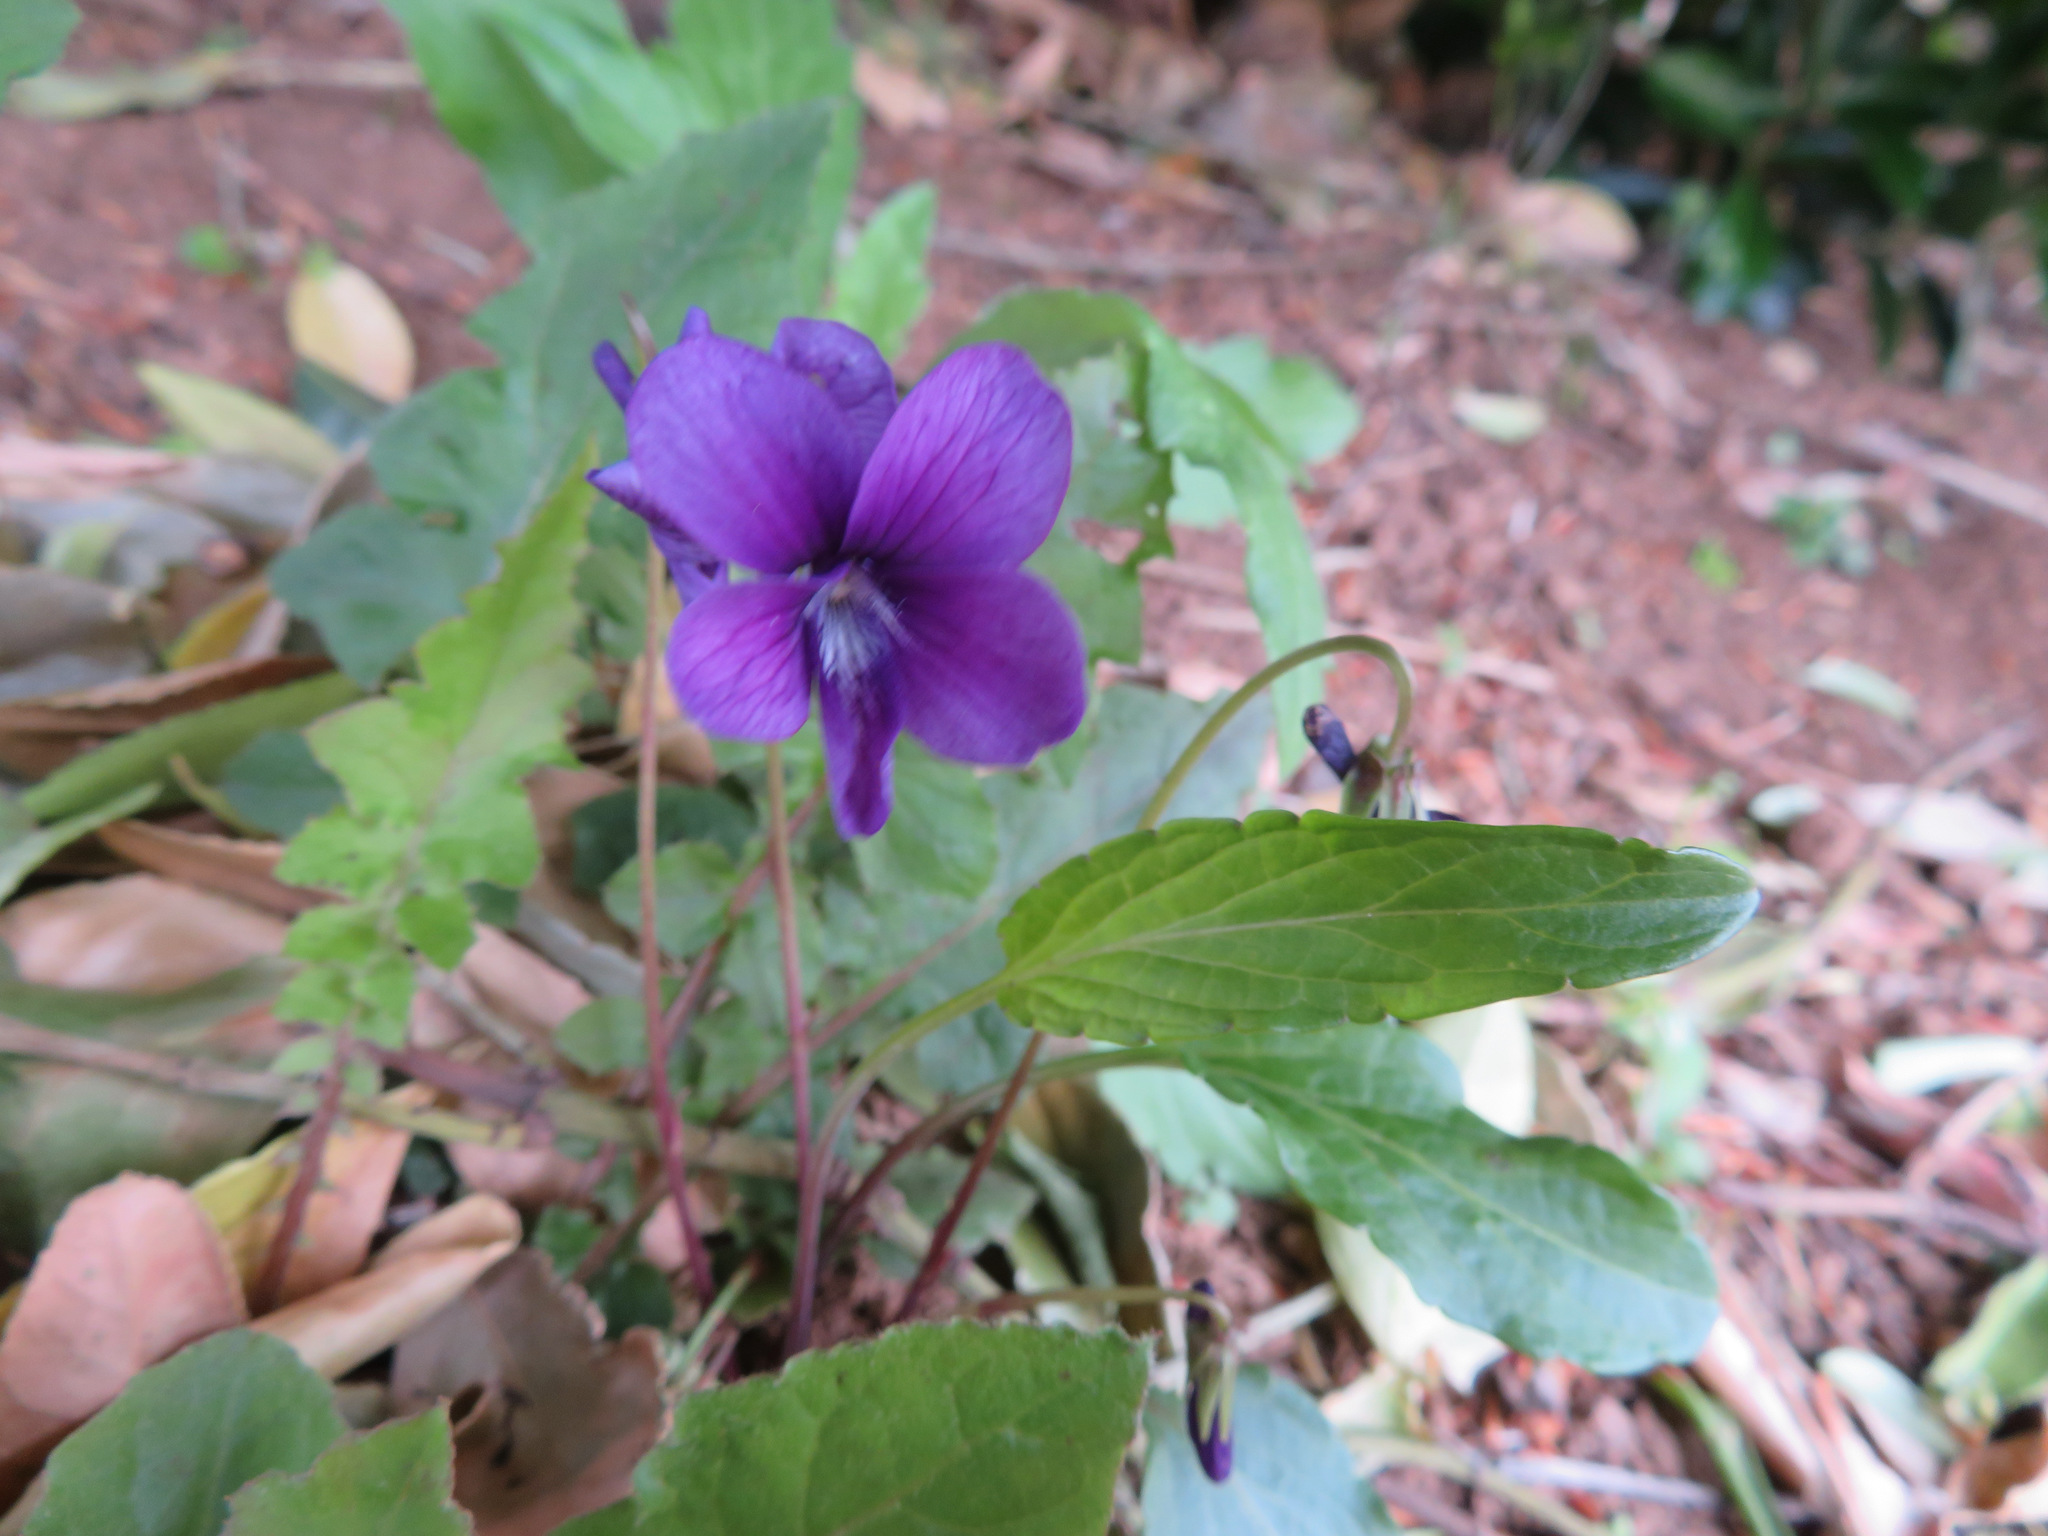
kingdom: Plantae
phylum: Tracheophyta
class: Magnoliopsida
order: Malpighiales
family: Violaceae
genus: Viola
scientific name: Viola mandshurica
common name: Manchuria violet
